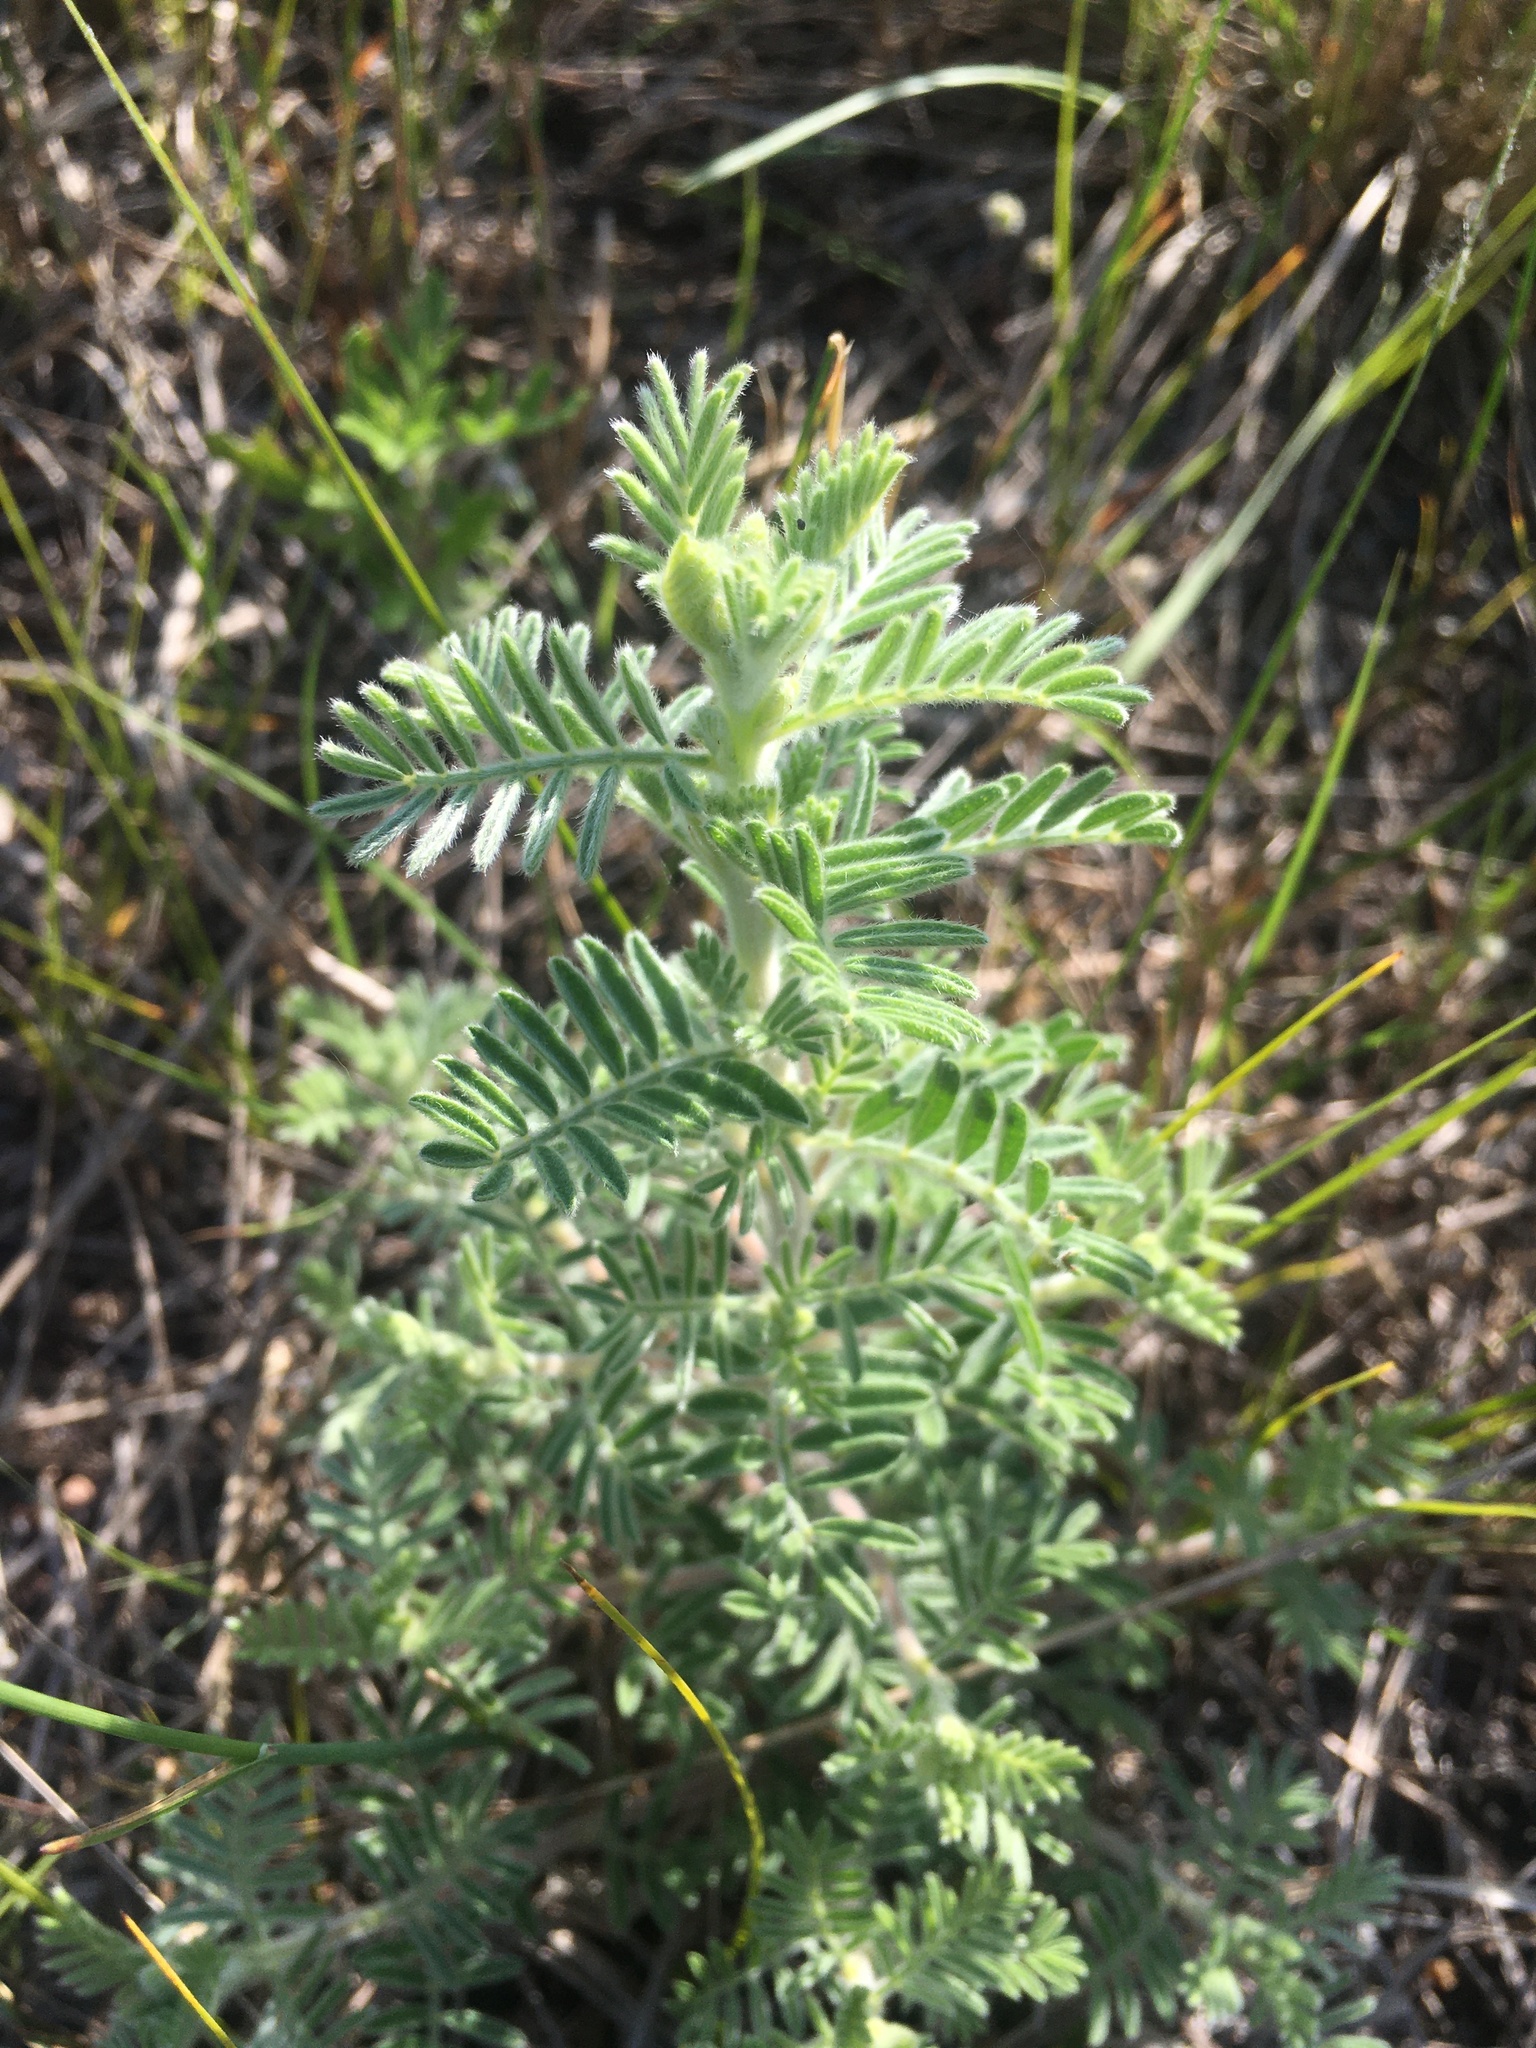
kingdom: Plantae
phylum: Tracheophyta
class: Magnoliopsida
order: Fabales
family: Fabaceae
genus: Dalea
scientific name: Dalea villosa
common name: Silky prairie-clover
